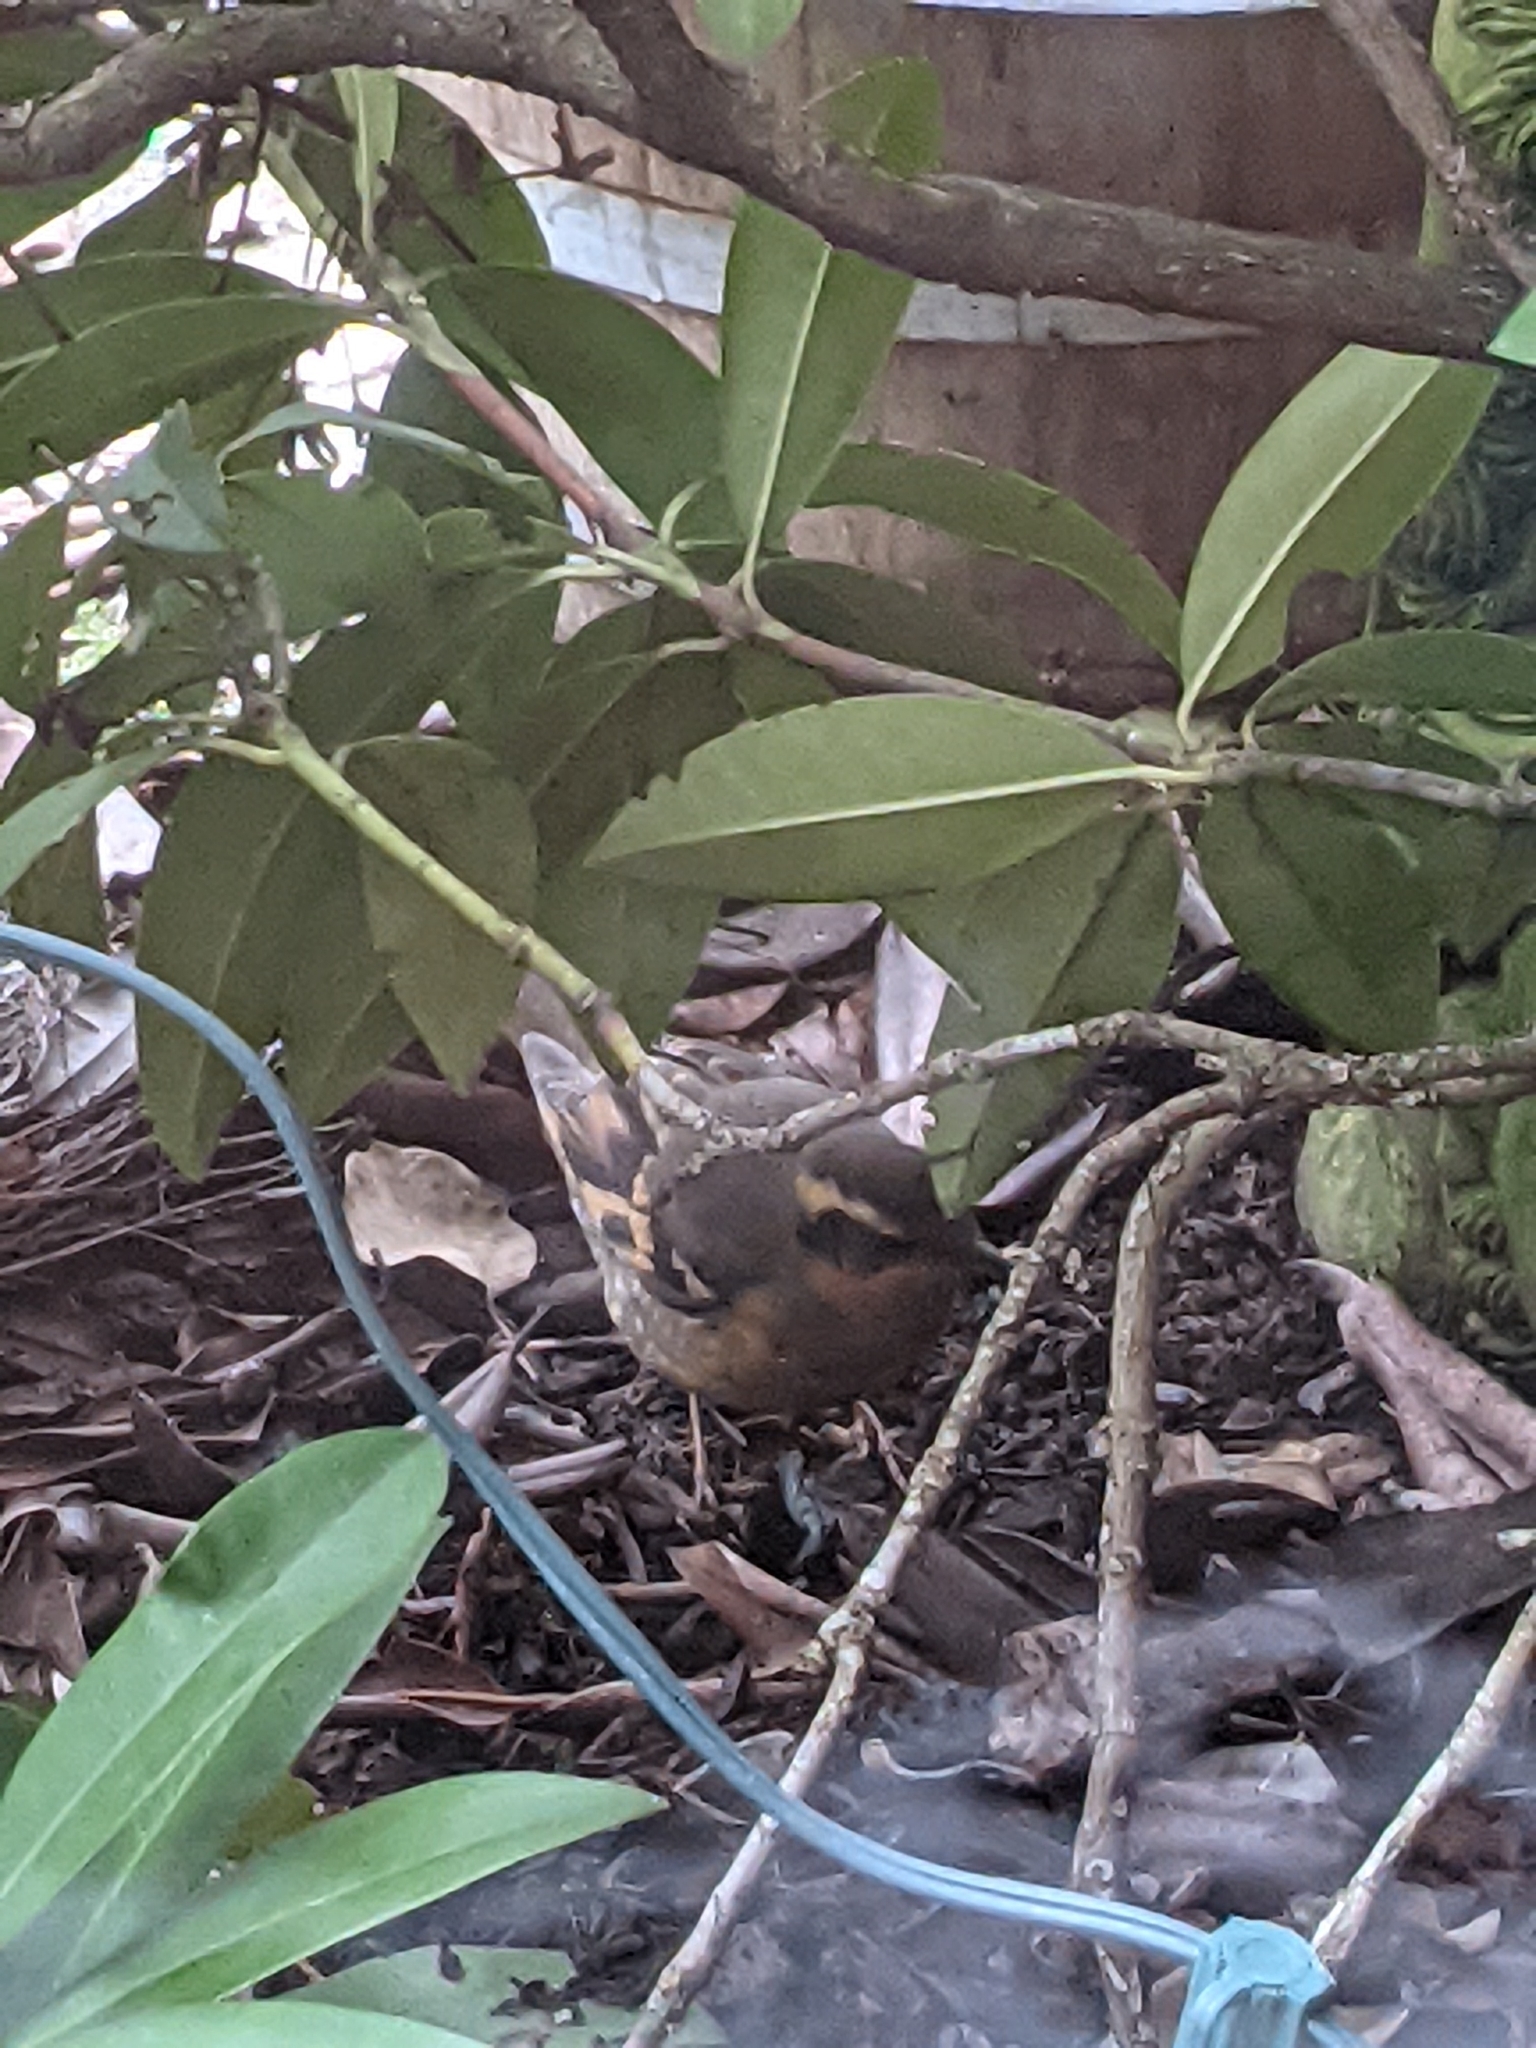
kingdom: Animalia
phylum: Chordata
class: Aves
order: Passeriformes
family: Turdidae
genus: Ixoreus
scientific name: Ixoreus naevius
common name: Varied thrush
